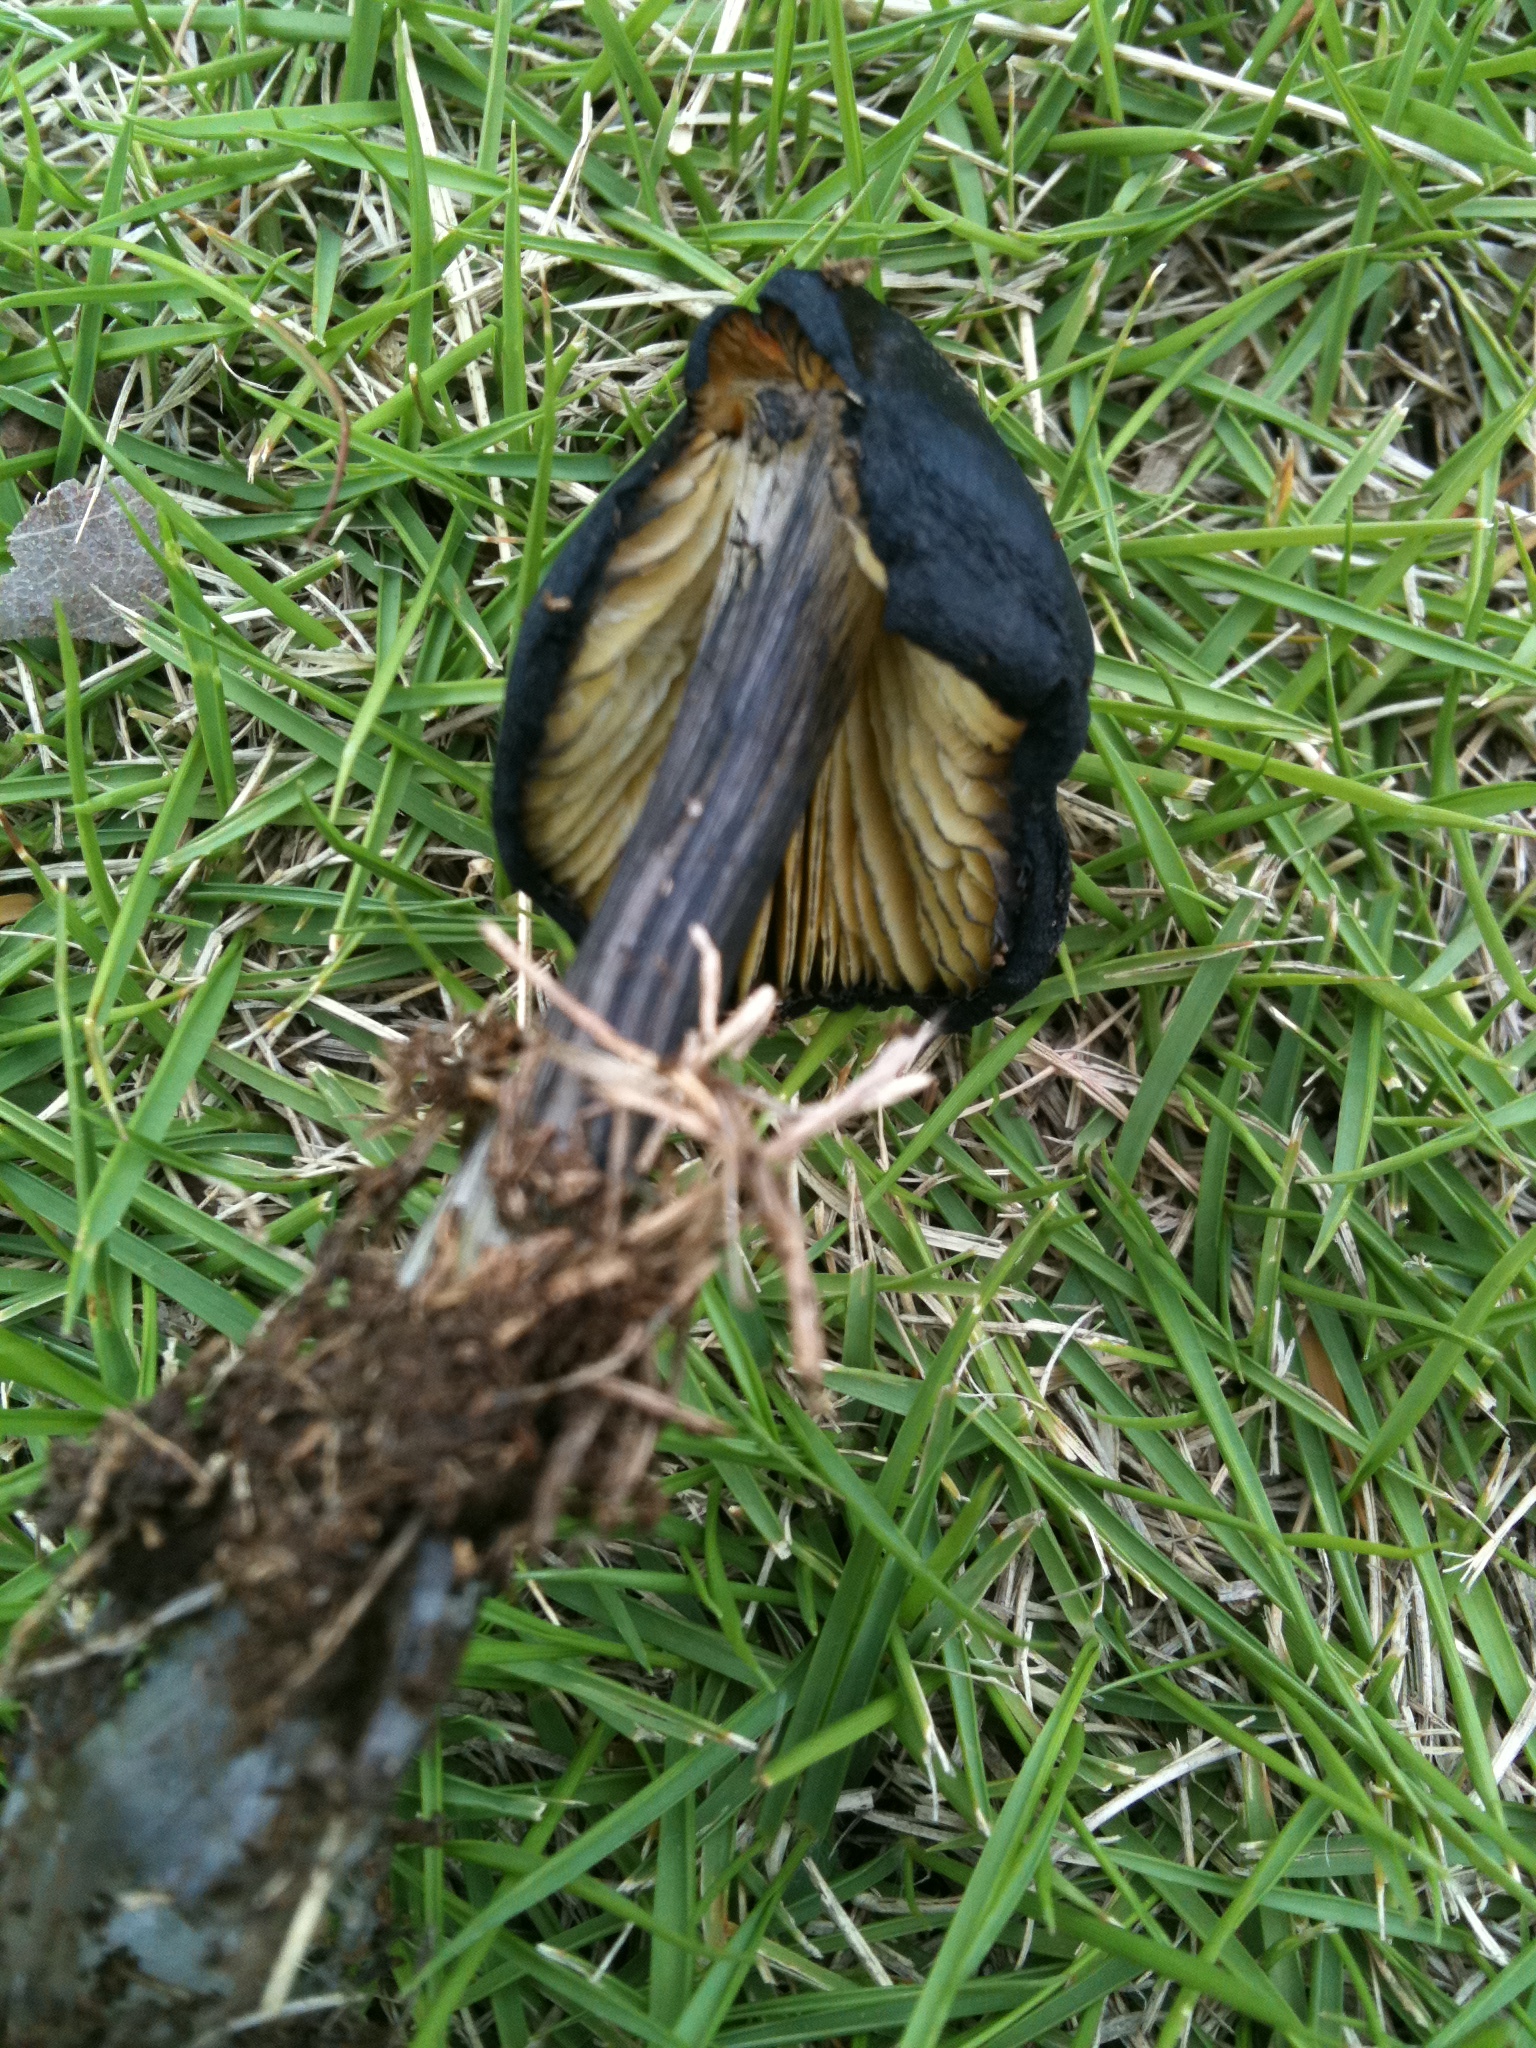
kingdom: Fungi
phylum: Basidiomycota
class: Agaricomycetes
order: Agaricales
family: Hygrophoraceae
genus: Hygrocybe
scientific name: Hygrocybe conica
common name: Blackening wax-cap
